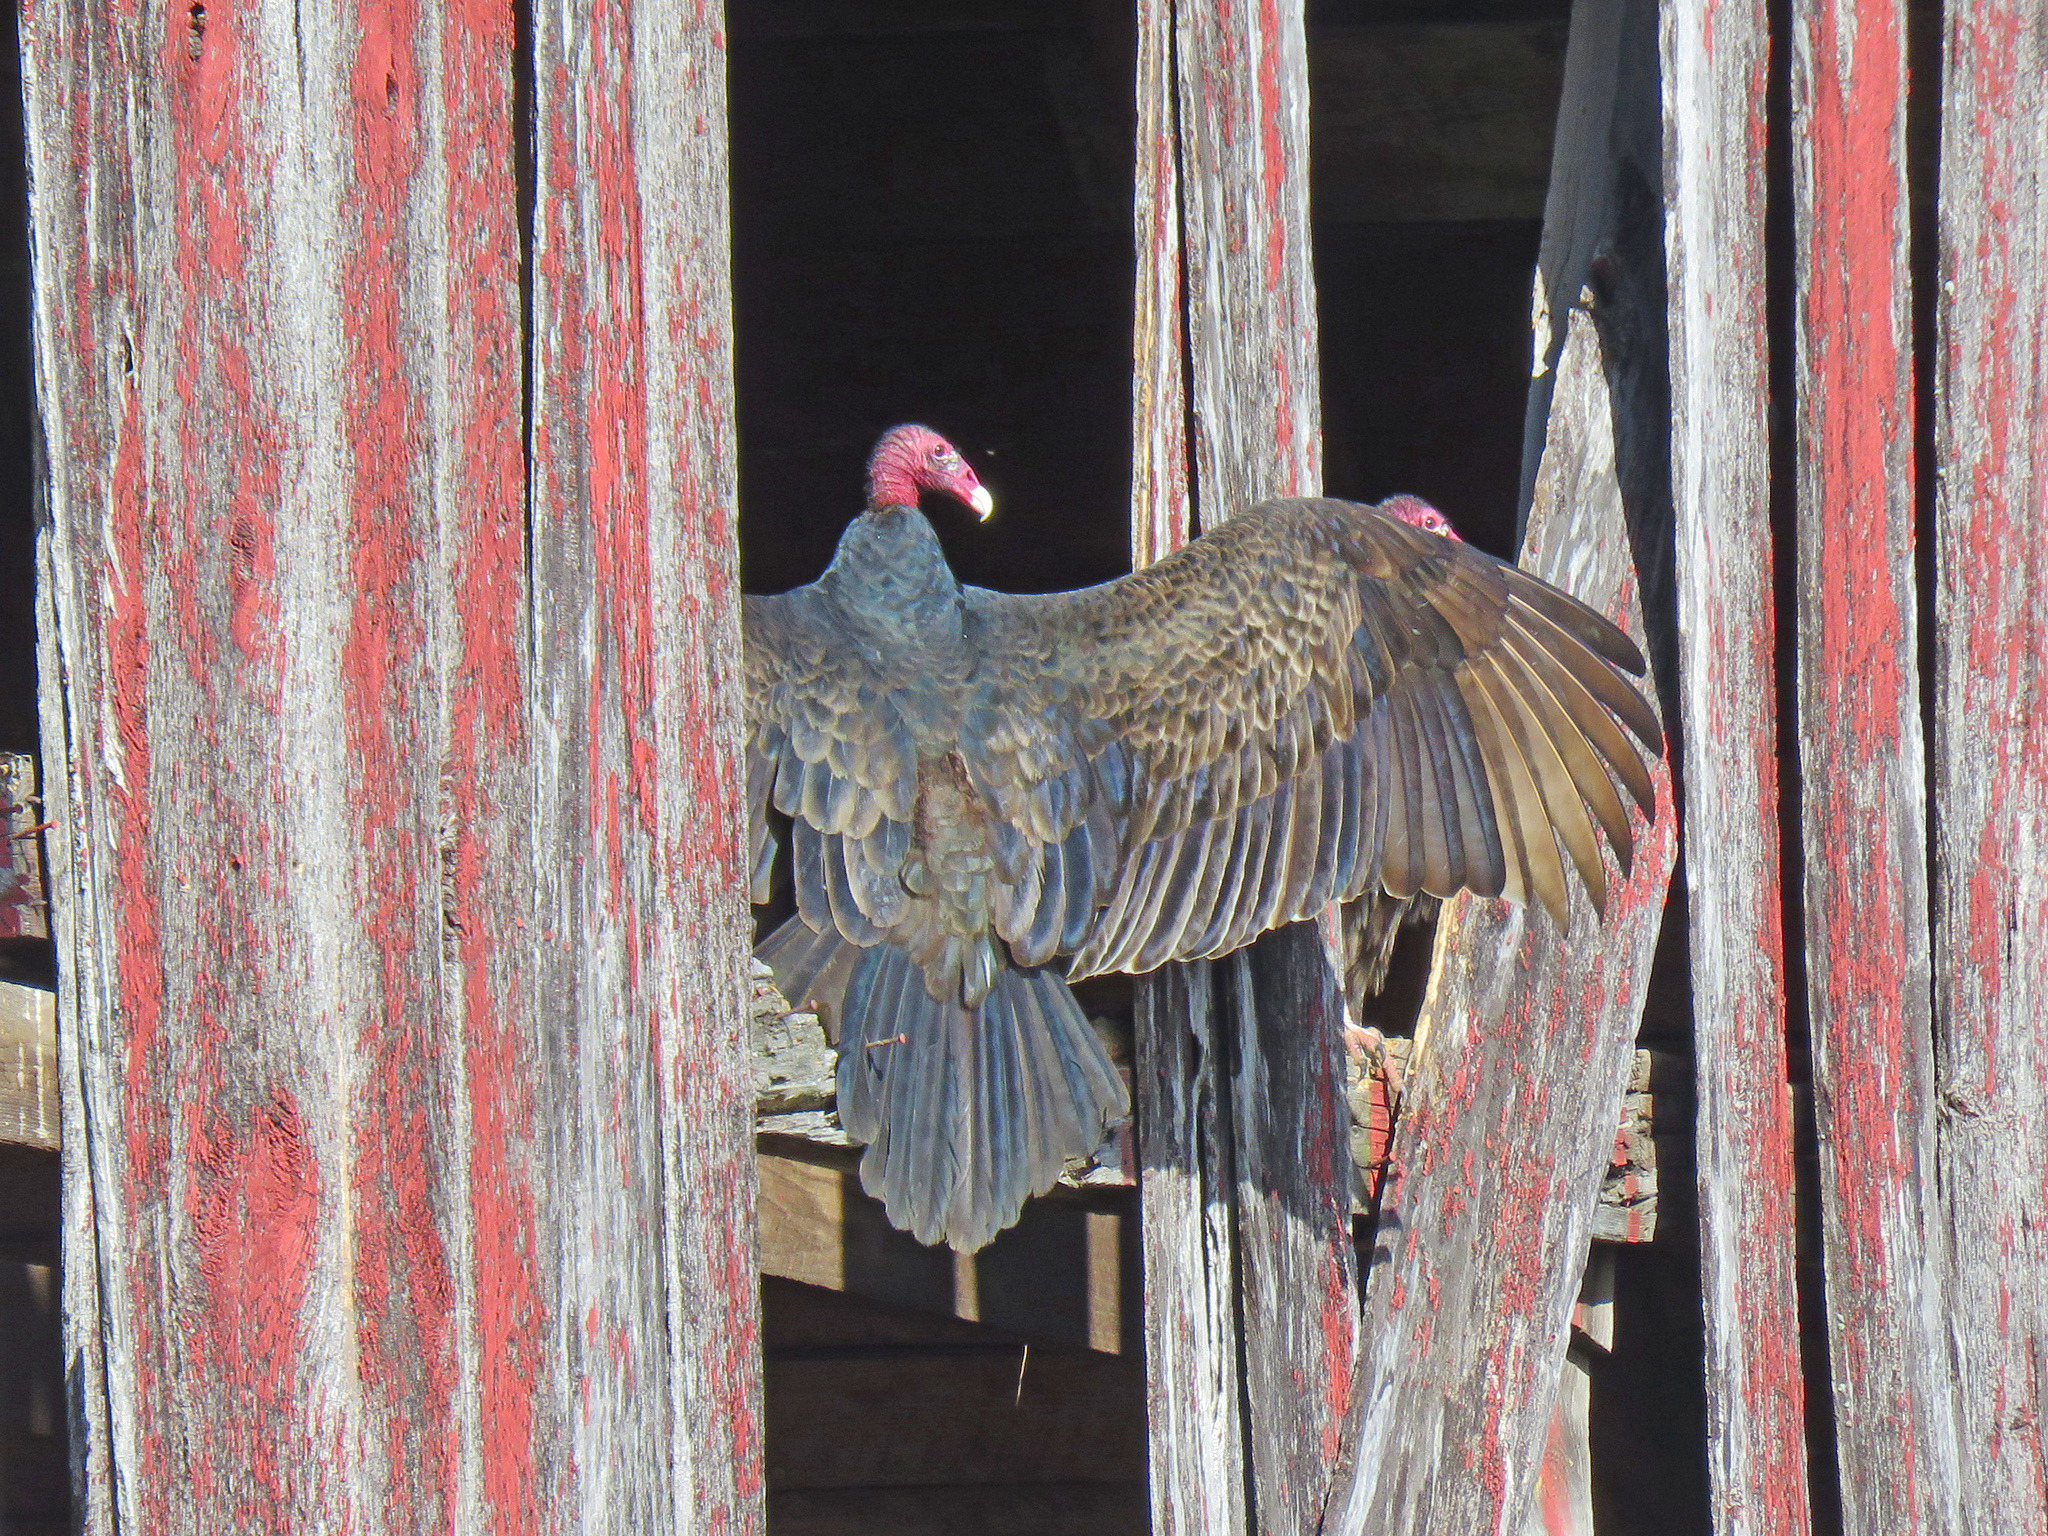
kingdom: Animalia
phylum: Chordata
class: Aves
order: Accipitriformes
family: Cathartidae
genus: Cathartes
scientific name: Cathartes aura
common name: Turkey vulture
